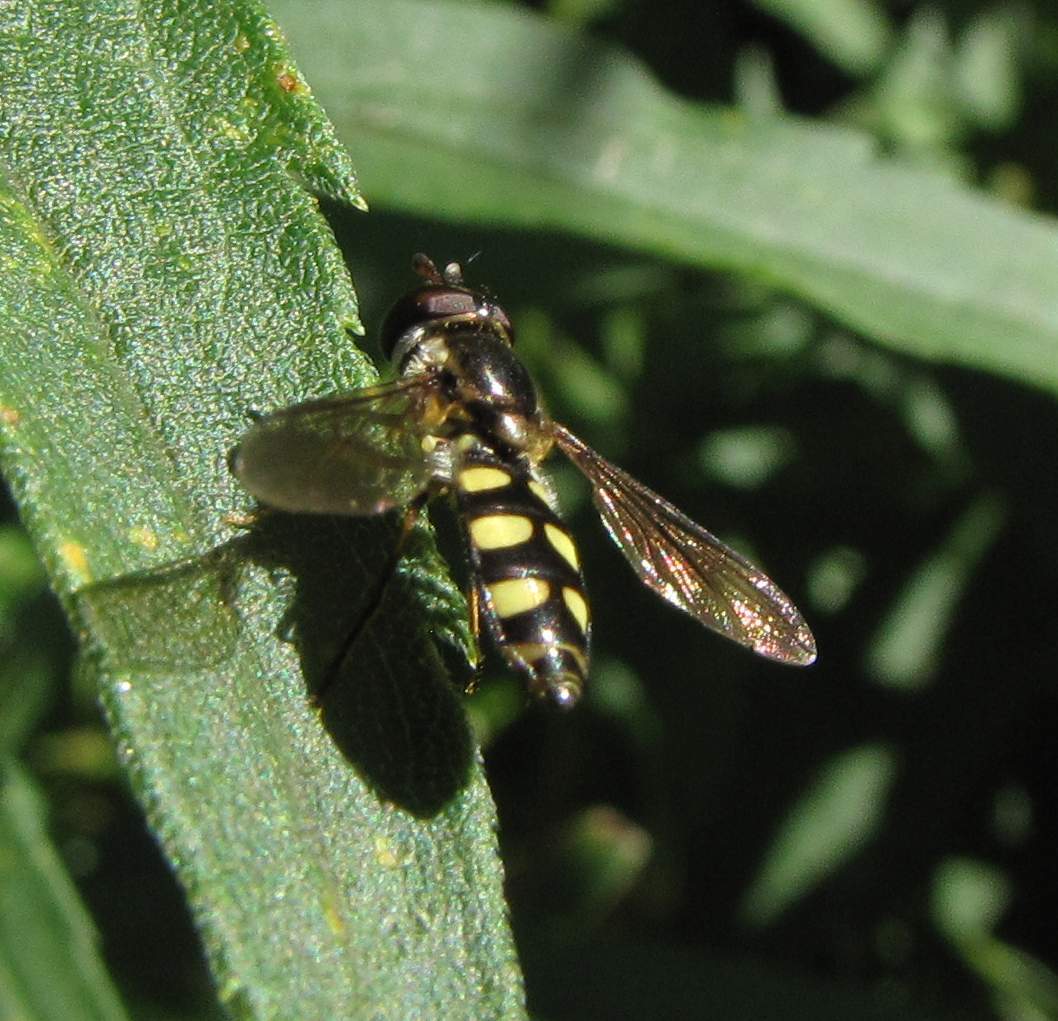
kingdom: Animalia
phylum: Arthropoda
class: Insecta
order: Diptera
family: Syrphidae
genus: Epistrophella
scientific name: Epistrophella emarginata
